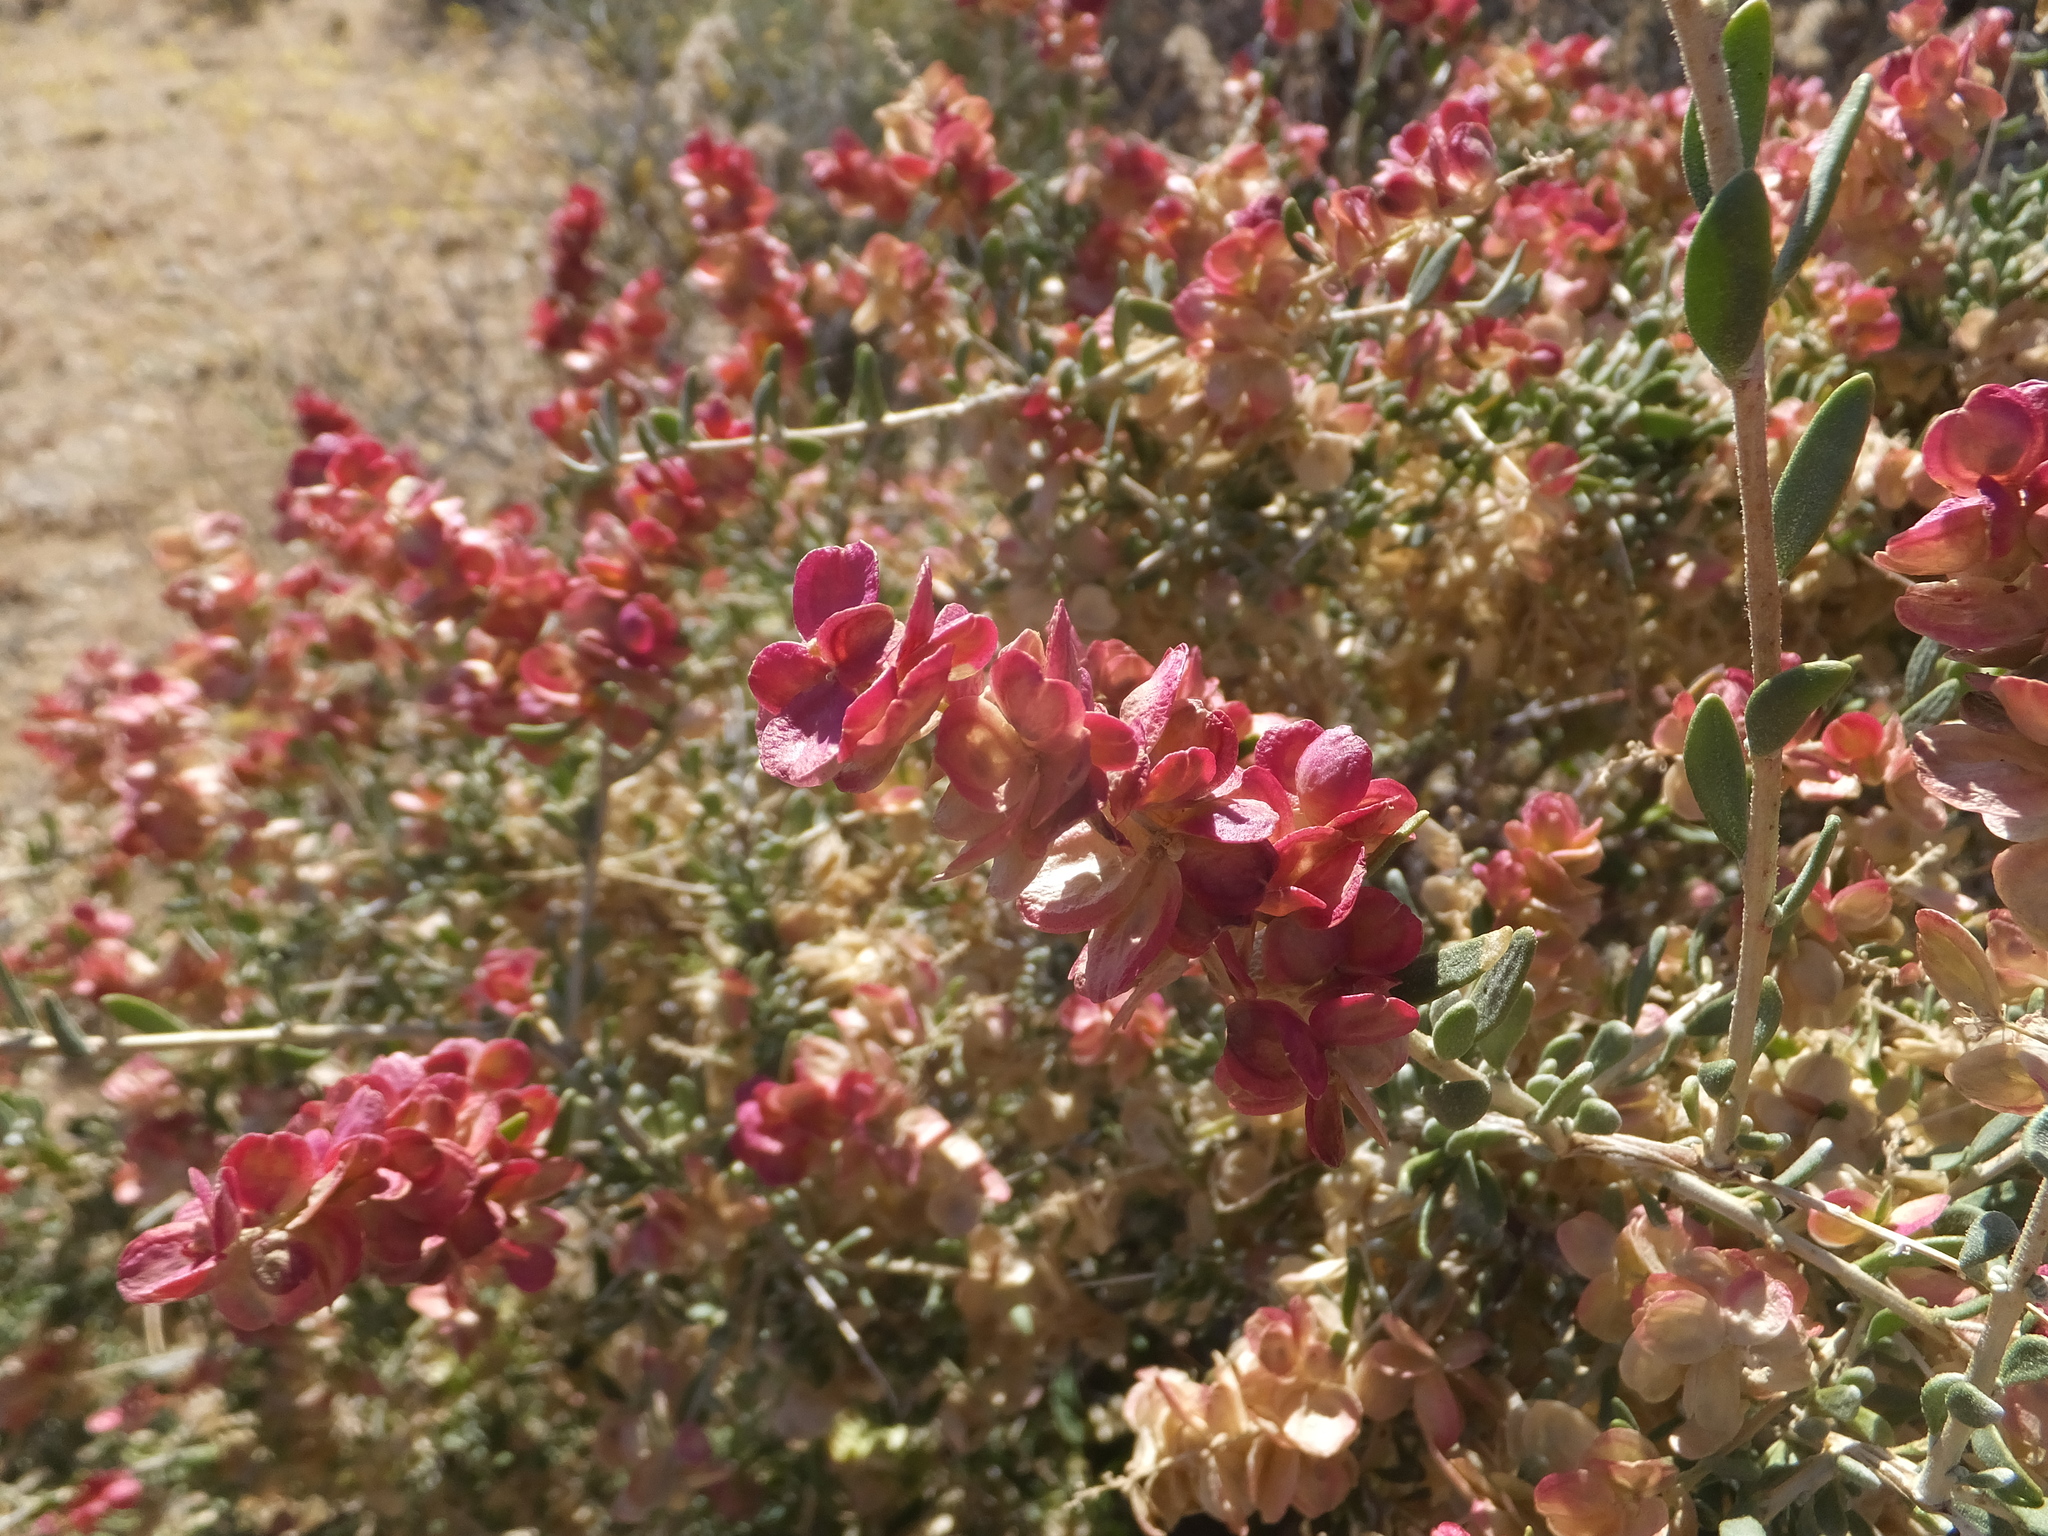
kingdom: Plantae
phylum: Tracheophyta
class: Magnoliopsida
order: Caryophyllales
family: Amaranthaceae
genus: Grayia
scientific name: Grayia spinosa
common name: Spiny hopsage
